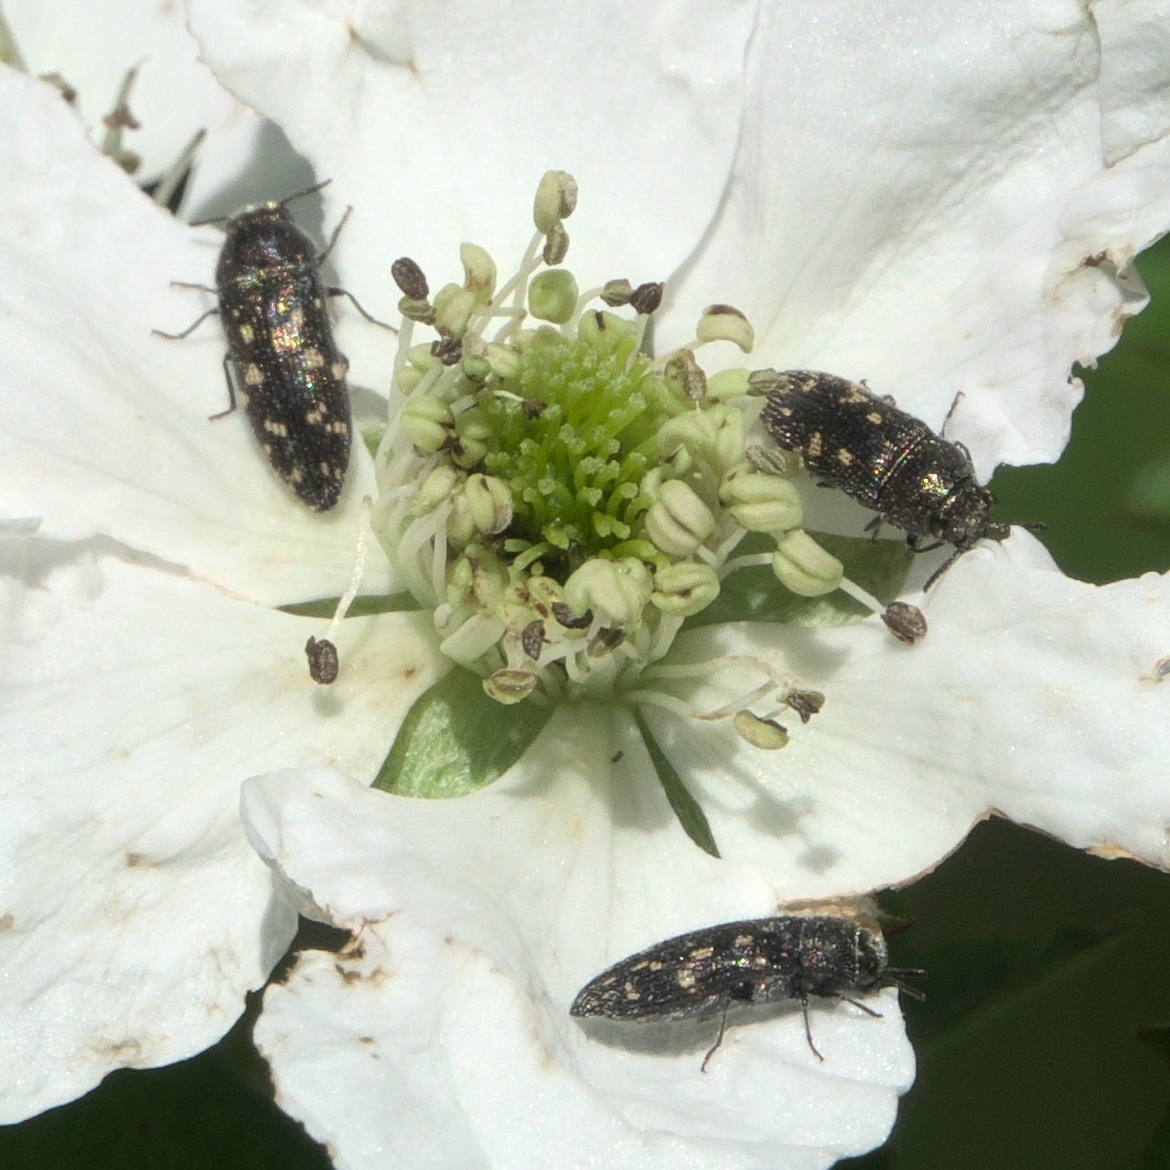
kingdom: Animalia
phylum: Arthropoda
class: Insecta
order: Coleoptera
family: Buprestidae
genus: Acmaeodera
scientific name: Acmaeodera tubulus
